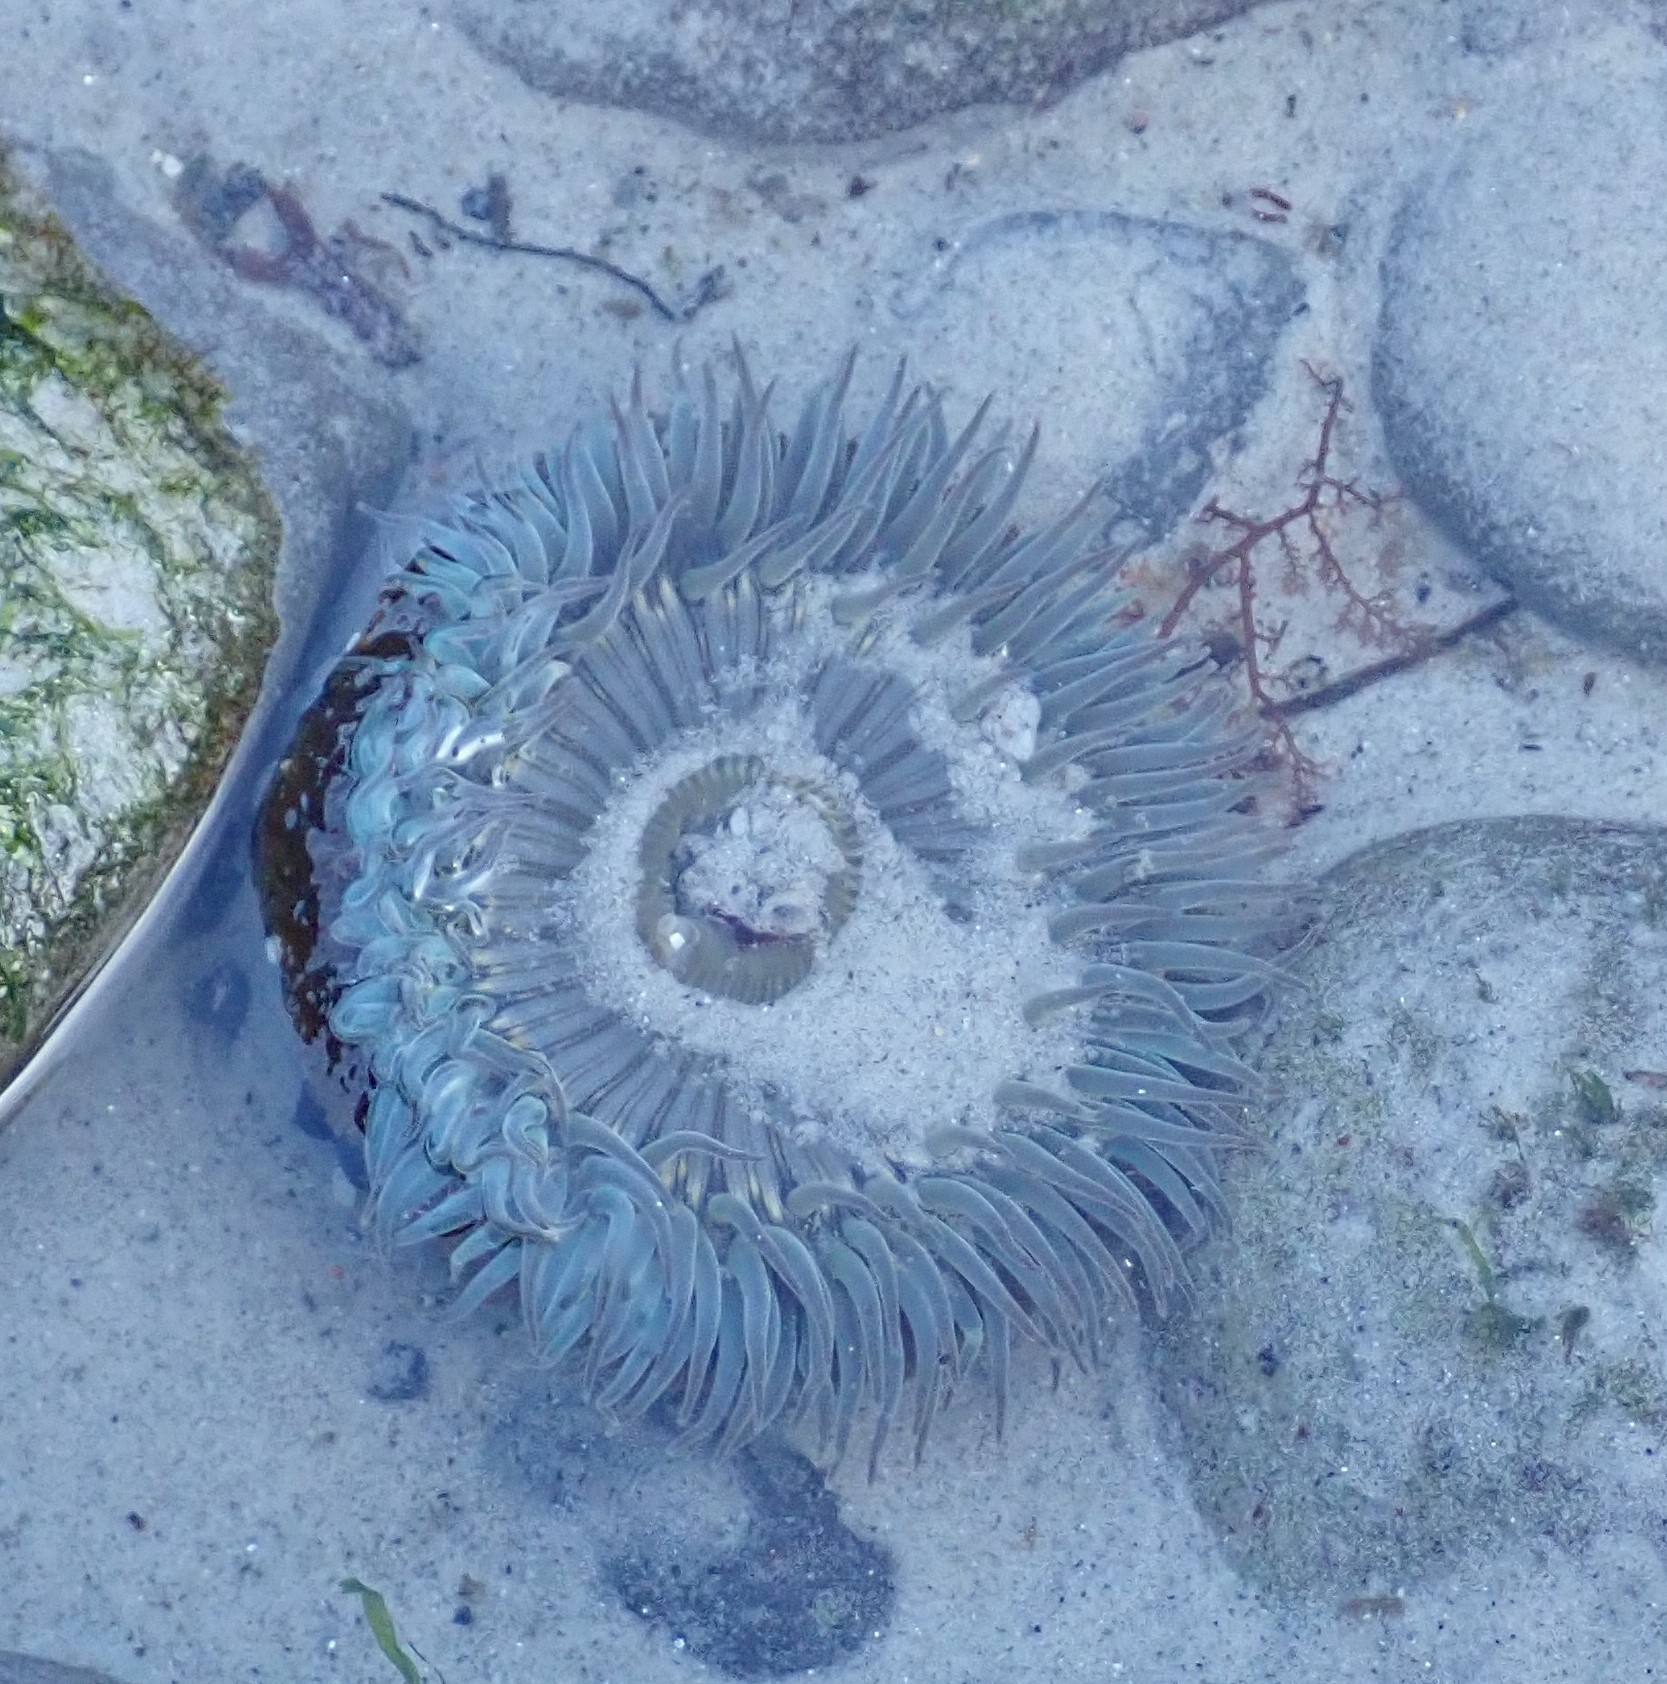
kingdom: Animalia
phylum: Cnidaria
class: Anthozoa
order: Actiniaria
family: Actiniidae
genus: Anthopleura
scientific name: Anthopleura sola
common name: Sun anemone
